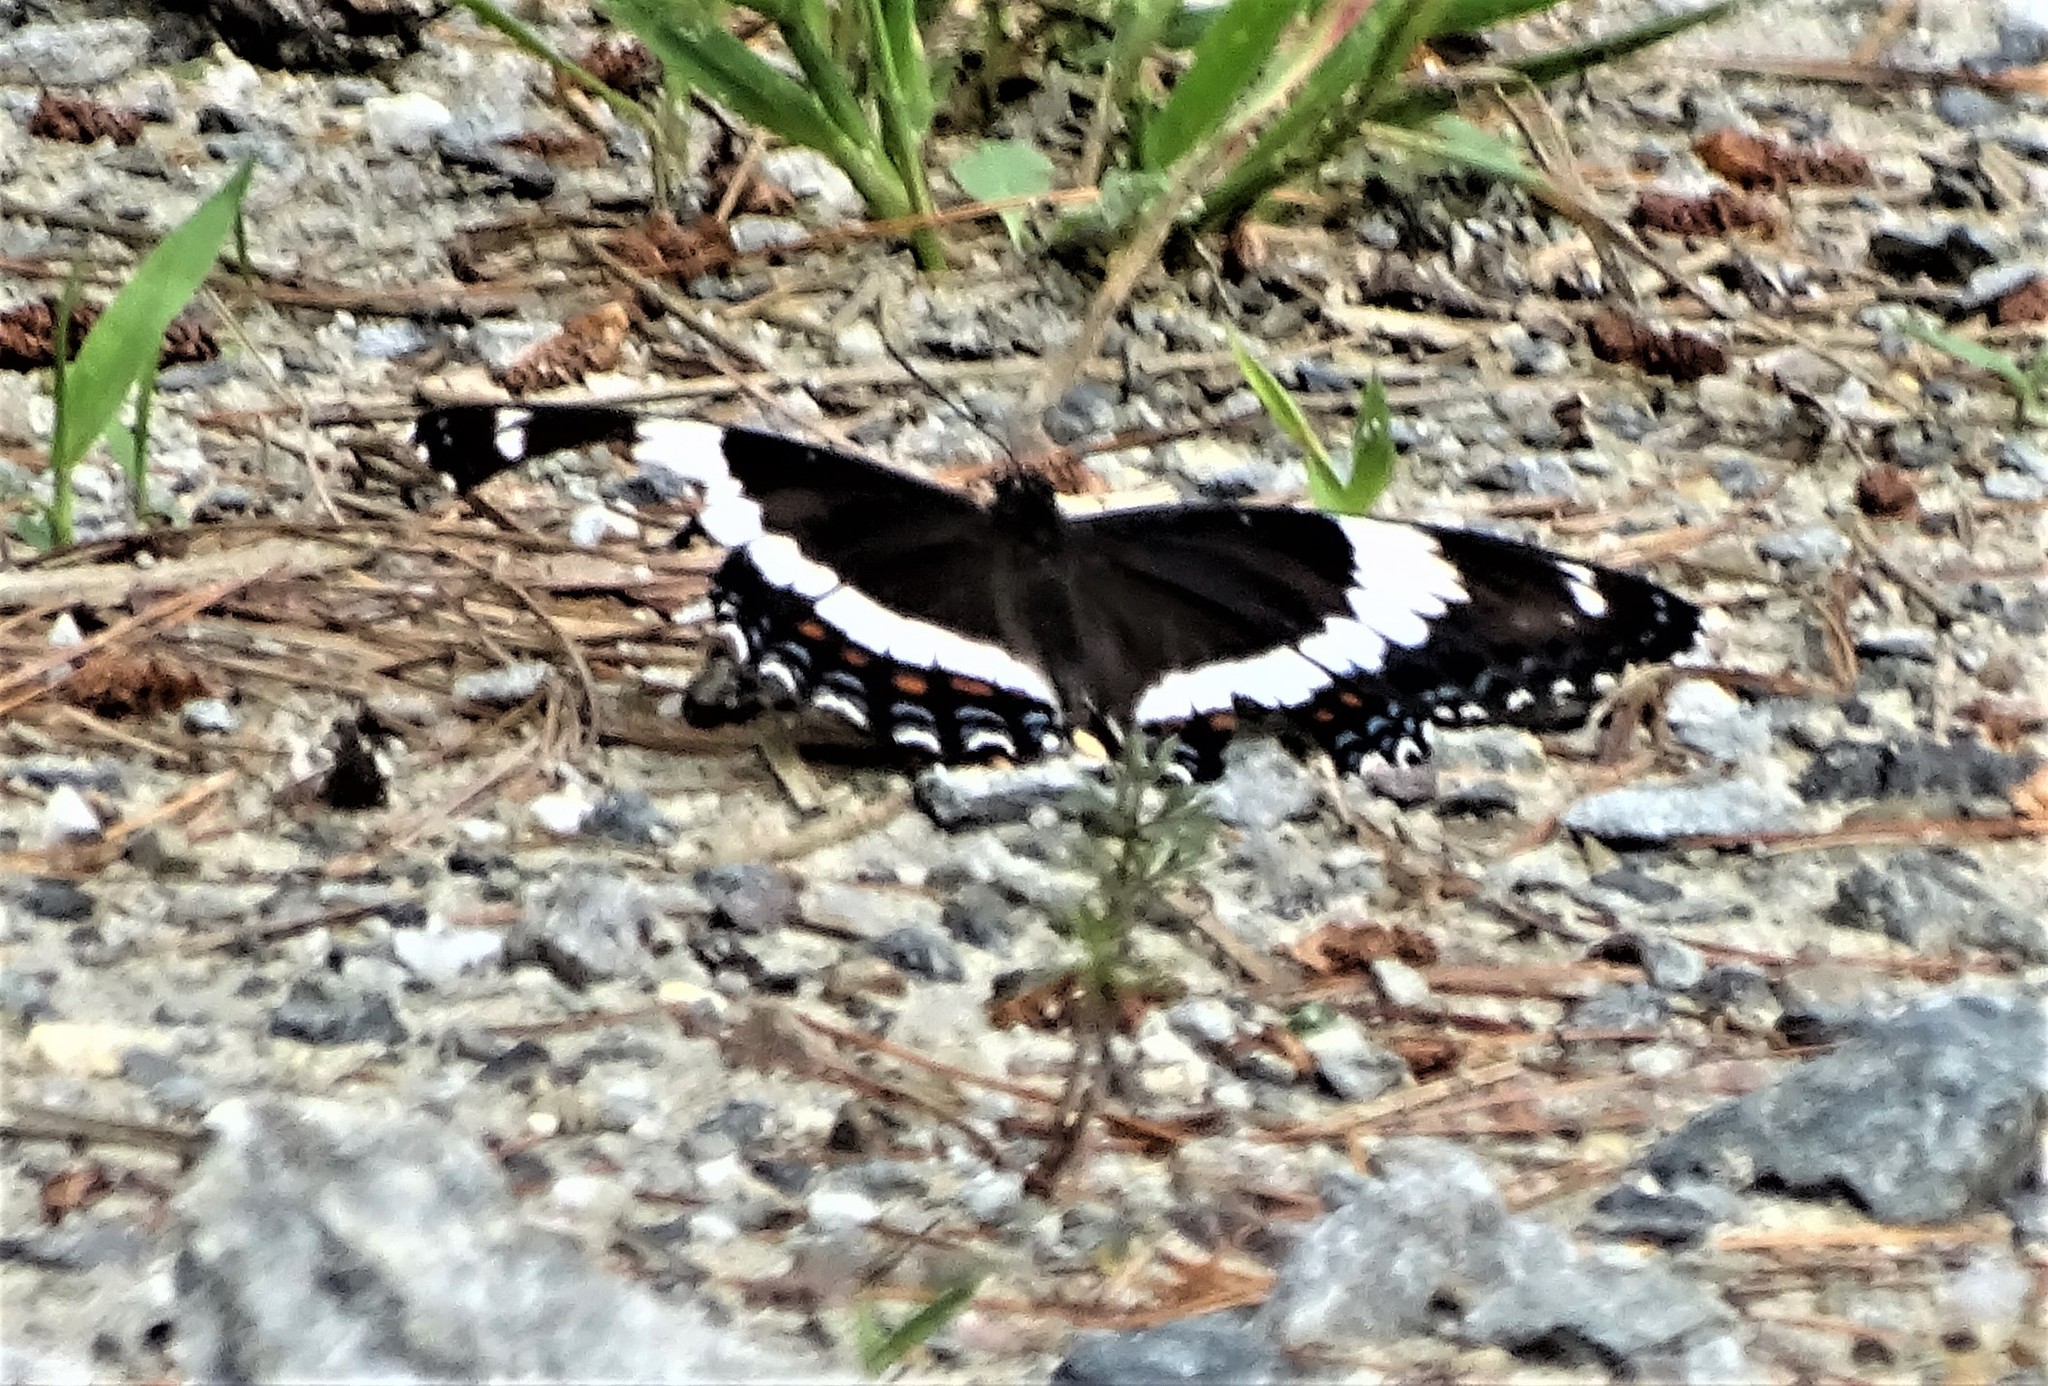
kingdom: Animalia
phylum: Arthropoda
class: Insecta
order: Lepidoptera
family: Nymphalidae
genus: Limenitis
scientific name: Limenitis arthemis
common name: Red-spotted admiral
